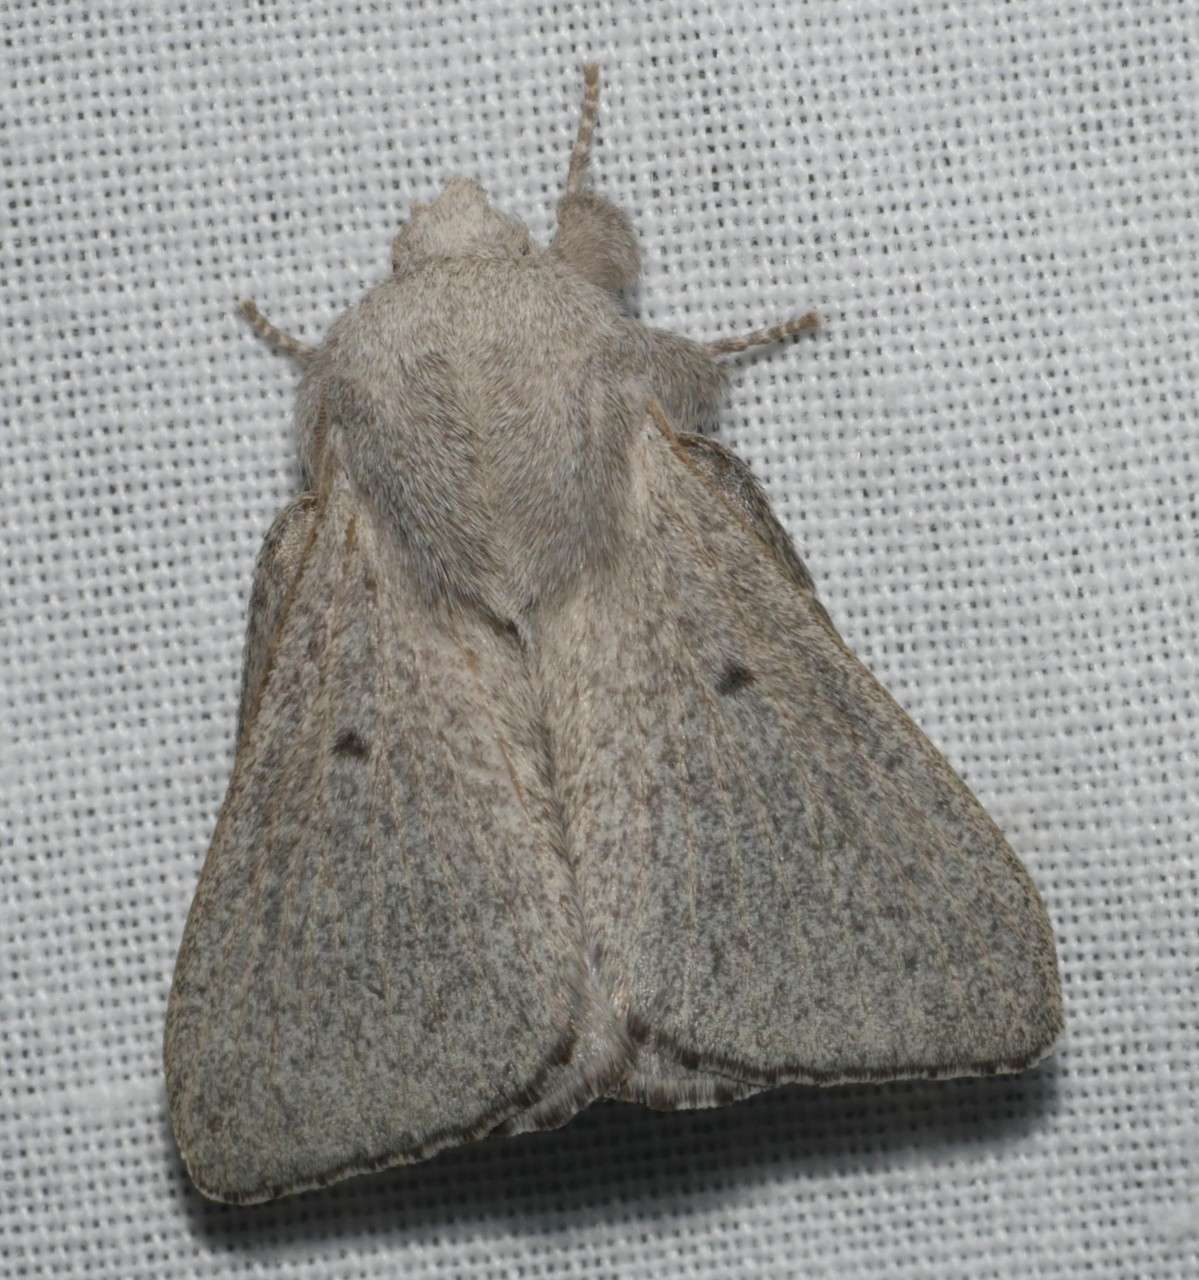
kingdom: Animalia
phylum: Arthropoda
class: Insecta
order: Lepidoptera
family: Lasiocampidae
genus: Symphyta
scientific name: Symphyta psaropis
